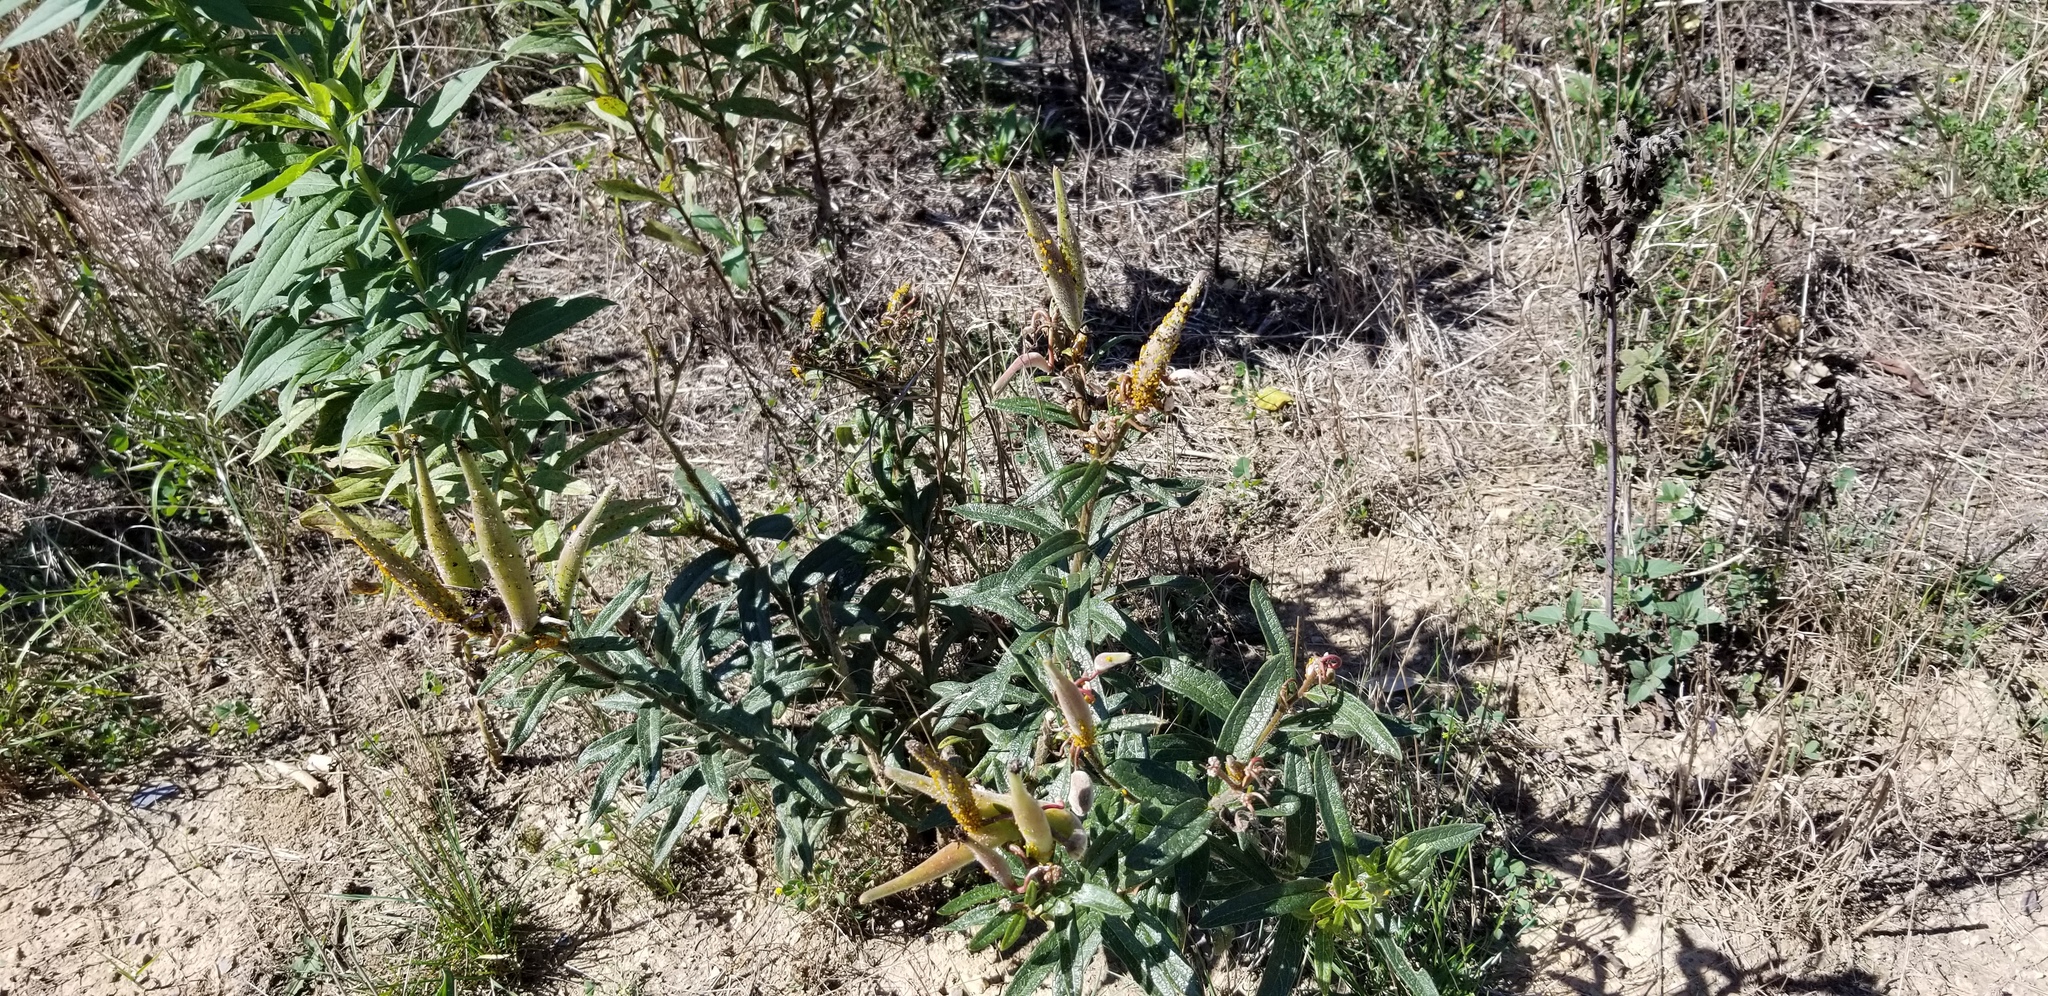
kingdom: Plantae
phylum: Tracheophyta
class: Magnoliopsida
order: Gentianales
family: Apocynaceae
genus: Asclepias
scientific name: Asclepias tuberosa
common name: Butterfly milkweed
